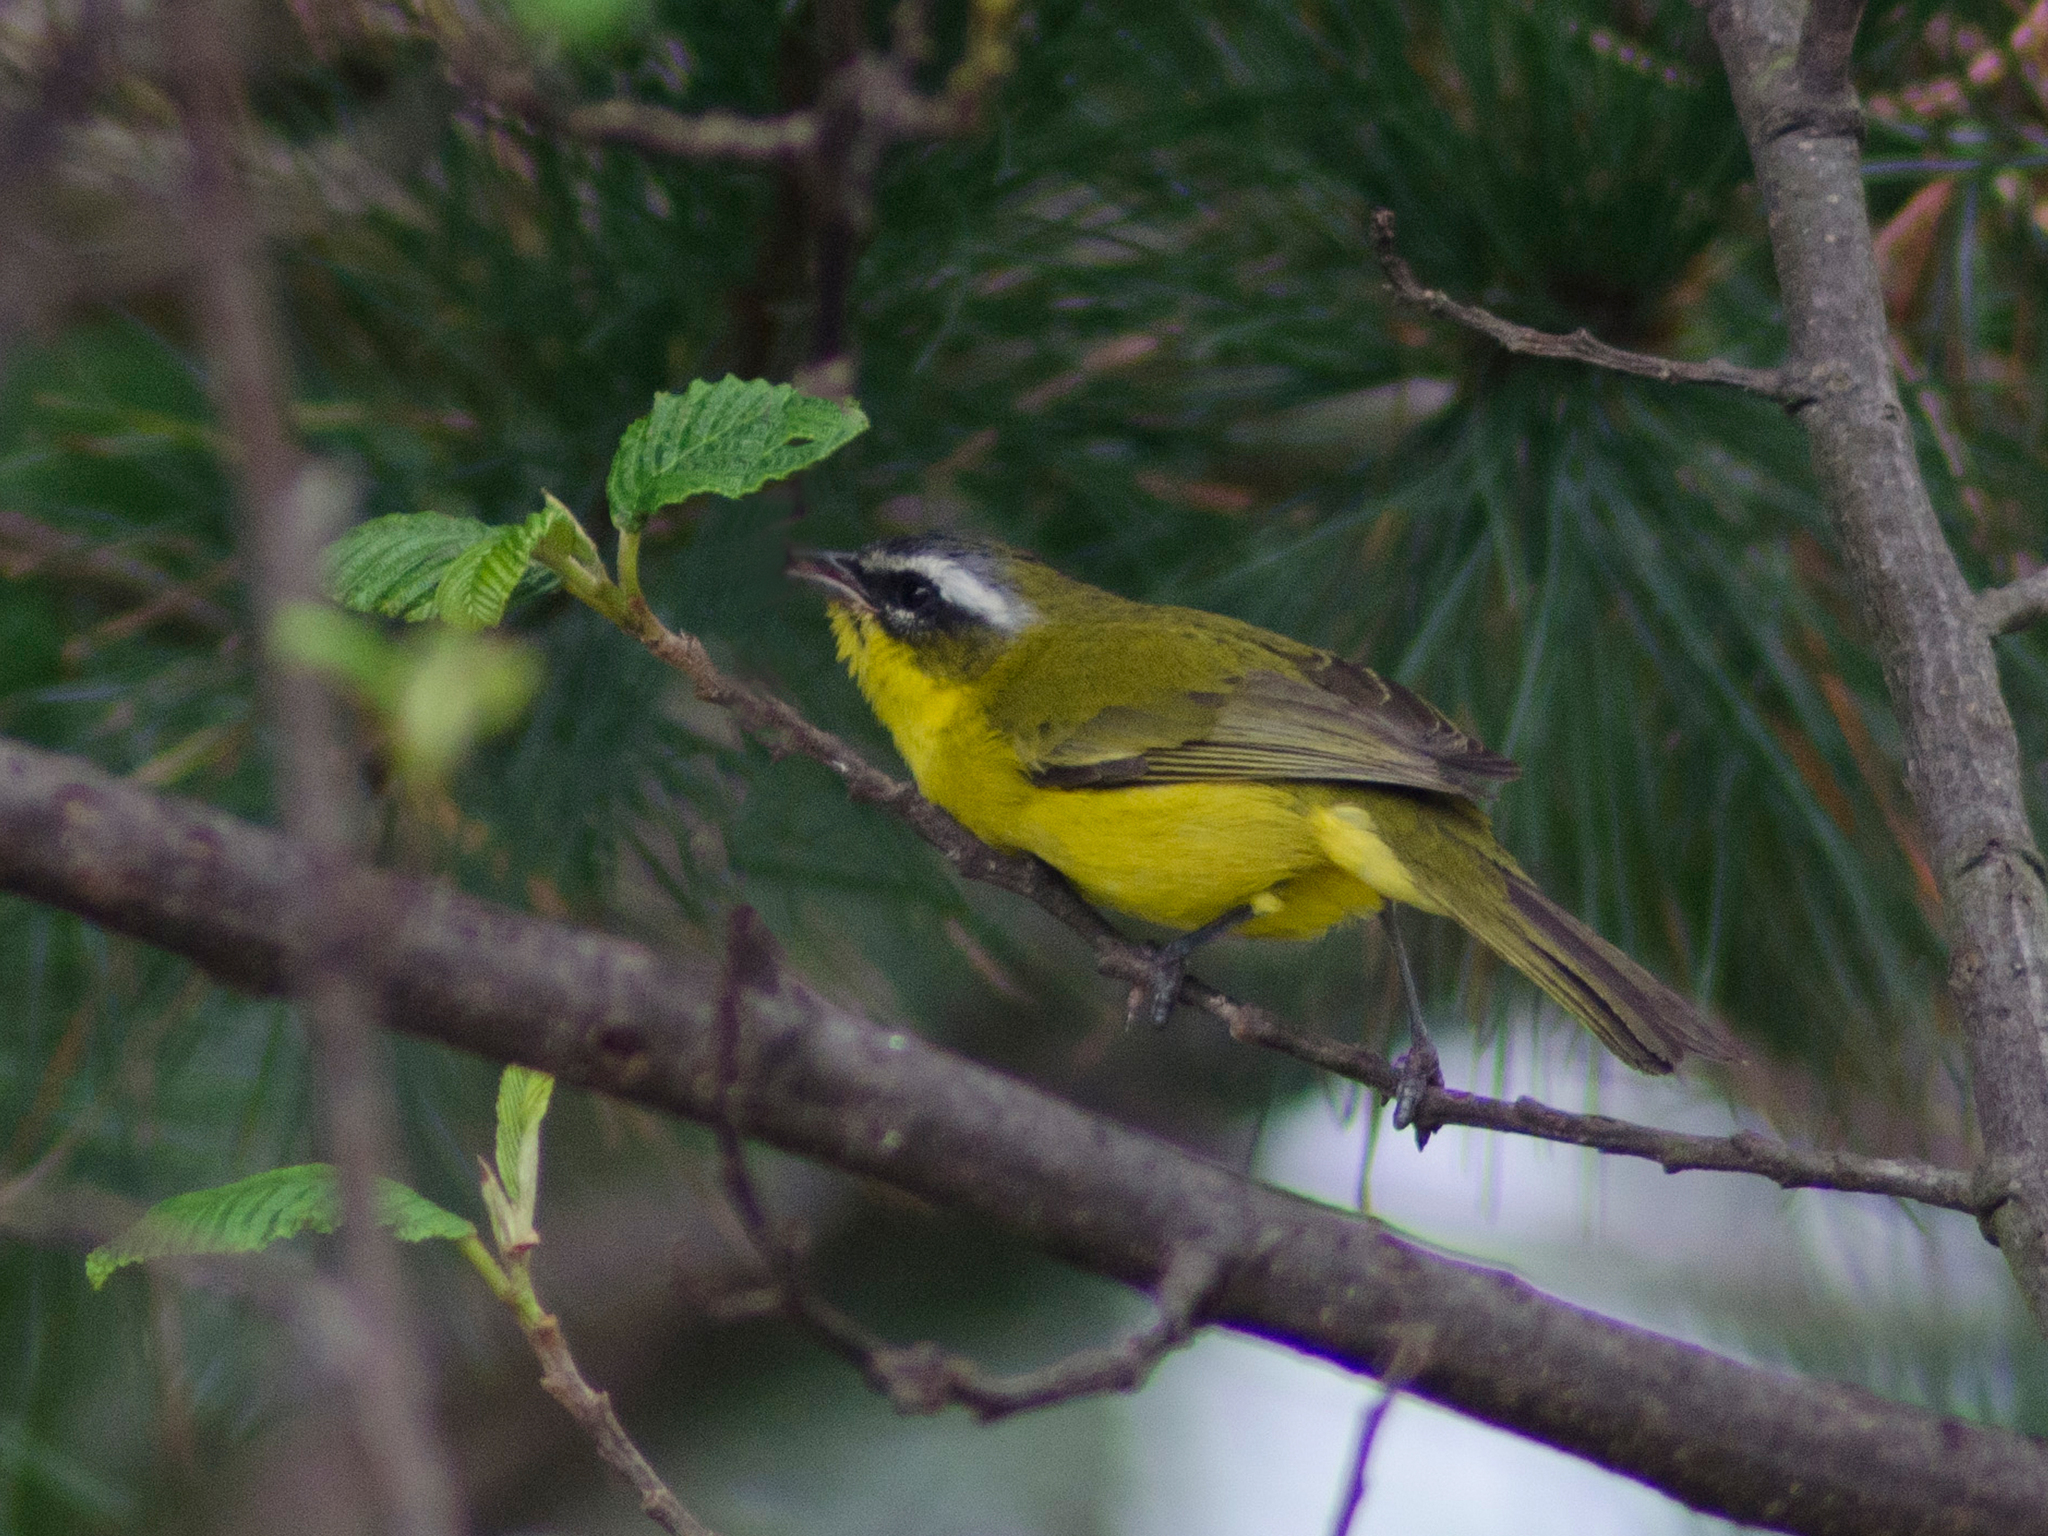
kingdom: Animalia
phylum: Chordata
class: Aves
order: Passeriformes
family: Thraupidae
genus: Thlypopsis
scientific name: Thlypopsis superciliaris
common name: Superciliaried hemispingus
